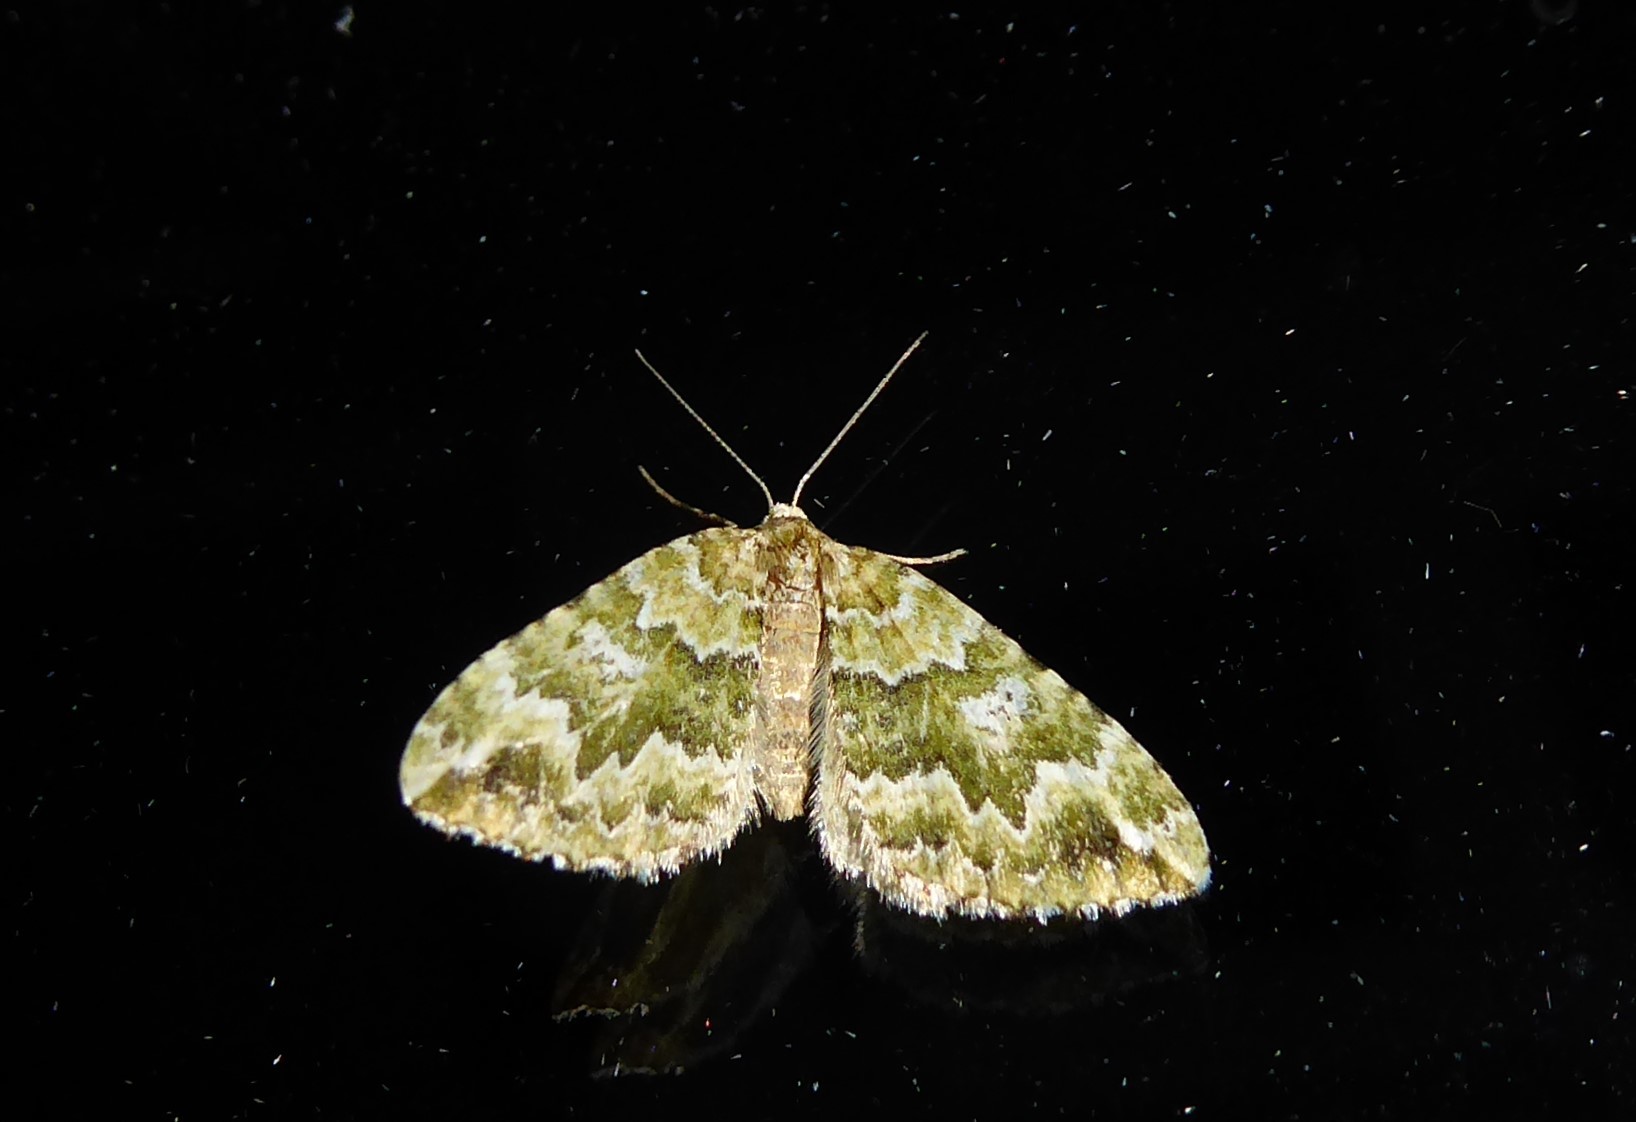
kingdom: Animalia
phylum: Arthropoda
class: Insecta
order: Lepidoptera
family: Geometridae
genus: Asaphodes
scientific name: Asaphodes beata
